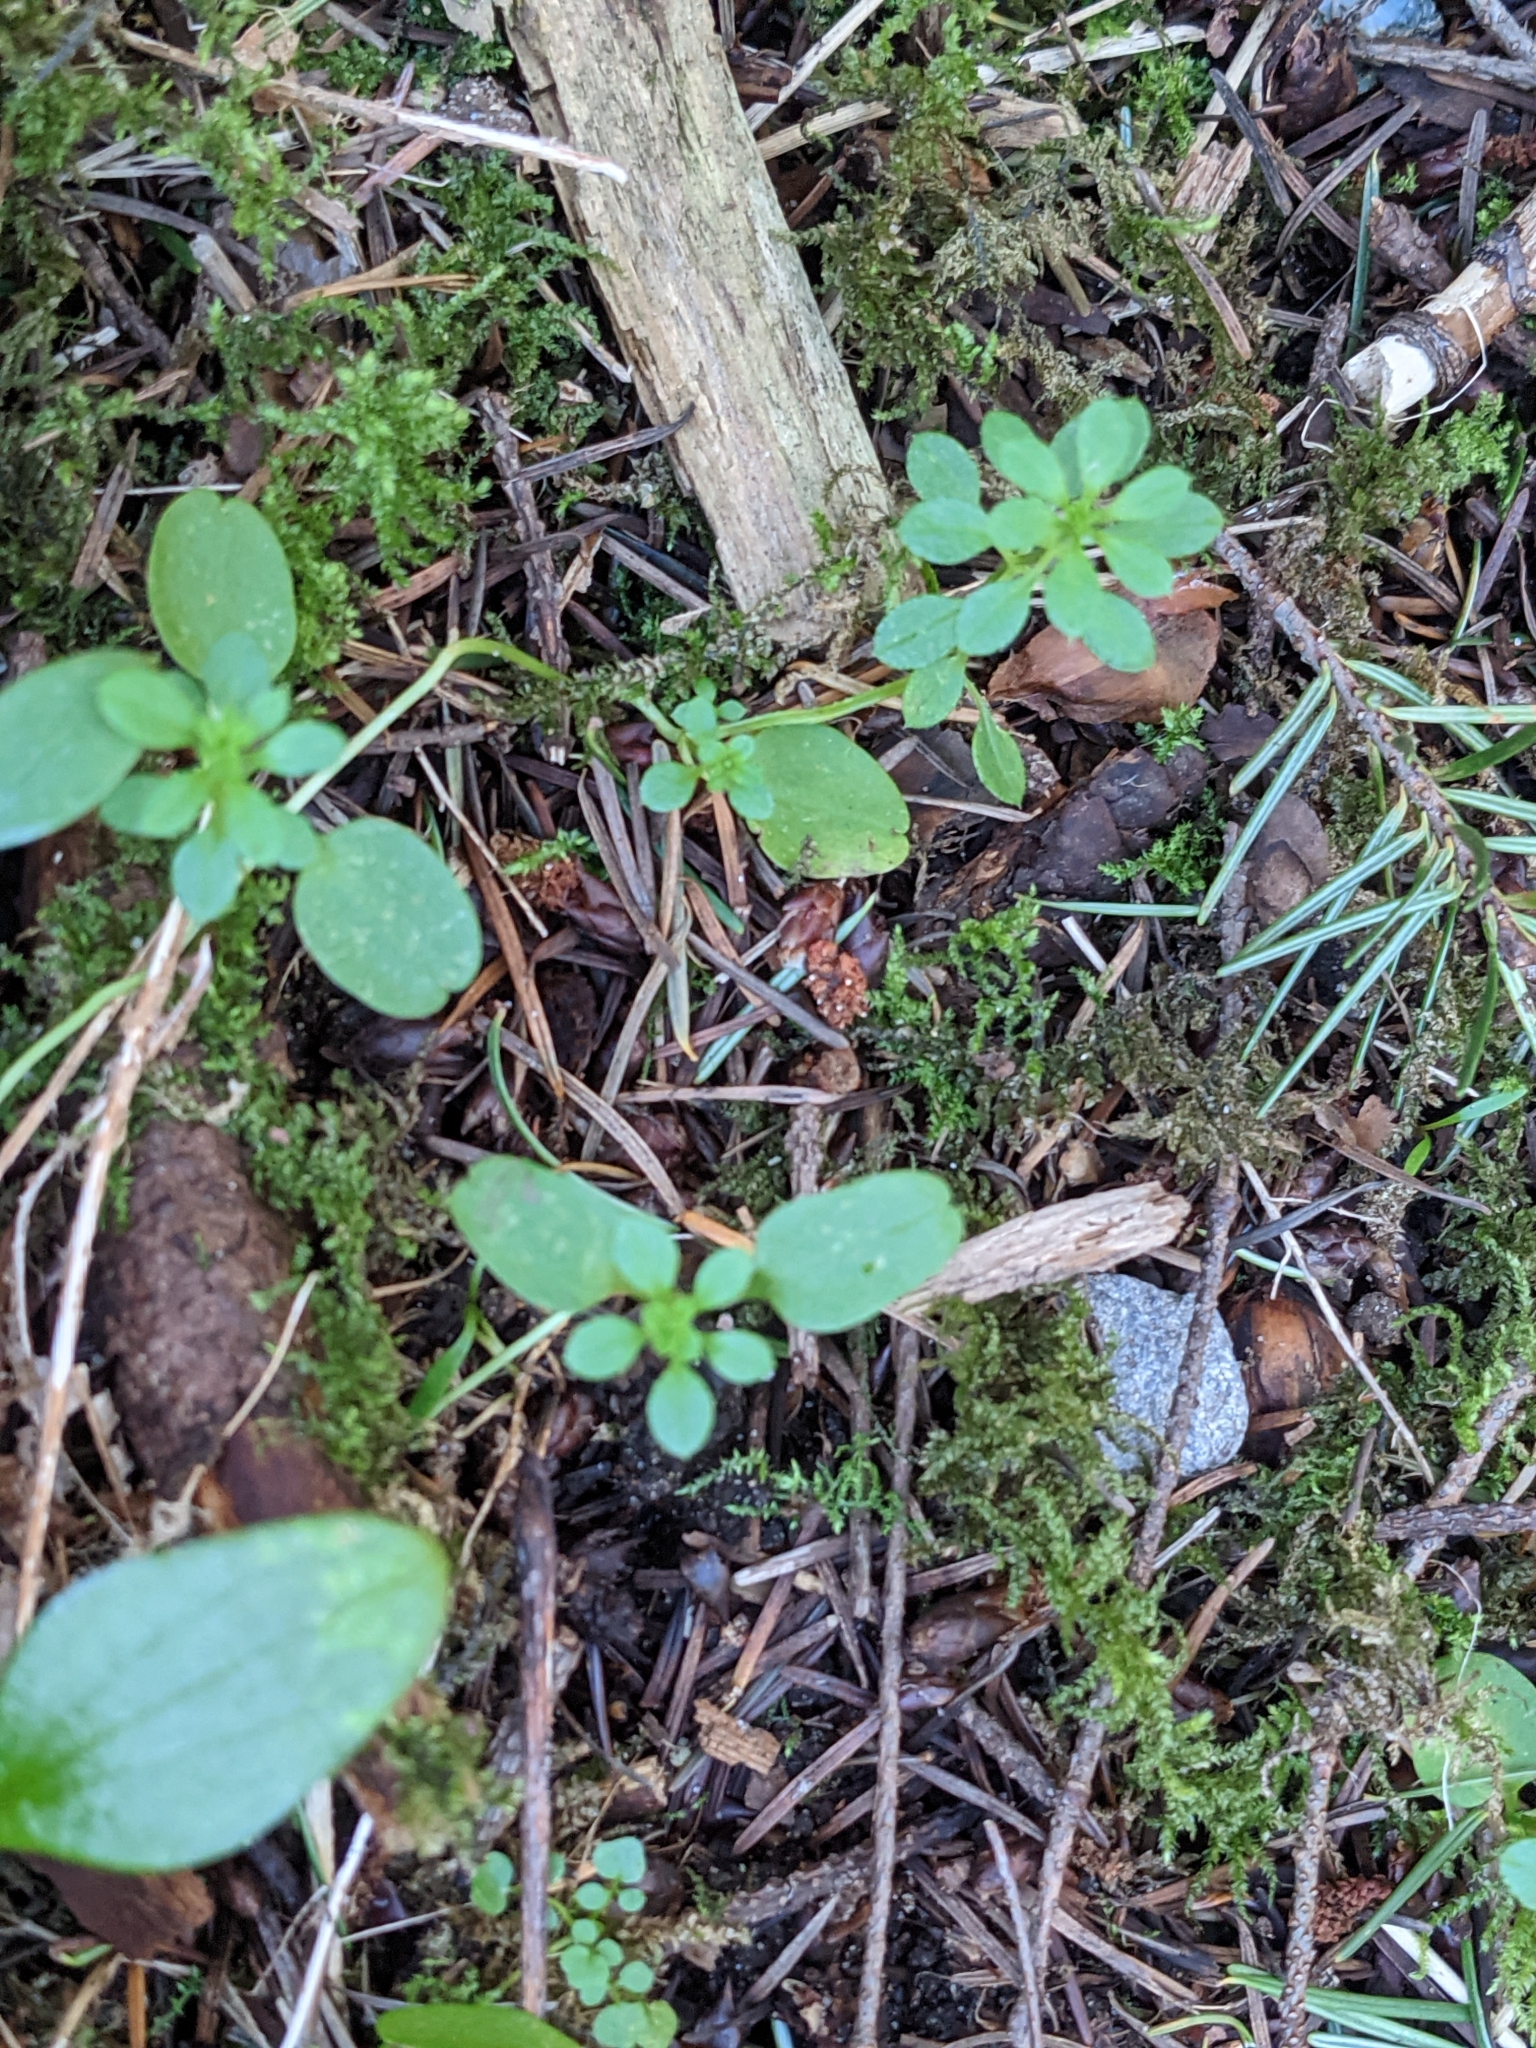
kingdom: Plantae
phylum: Tracheophyta
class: Magnoliopsida
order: Gentianales
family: Rubiaceae
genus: Galium
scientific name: Galium aparine
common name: Cleavers
